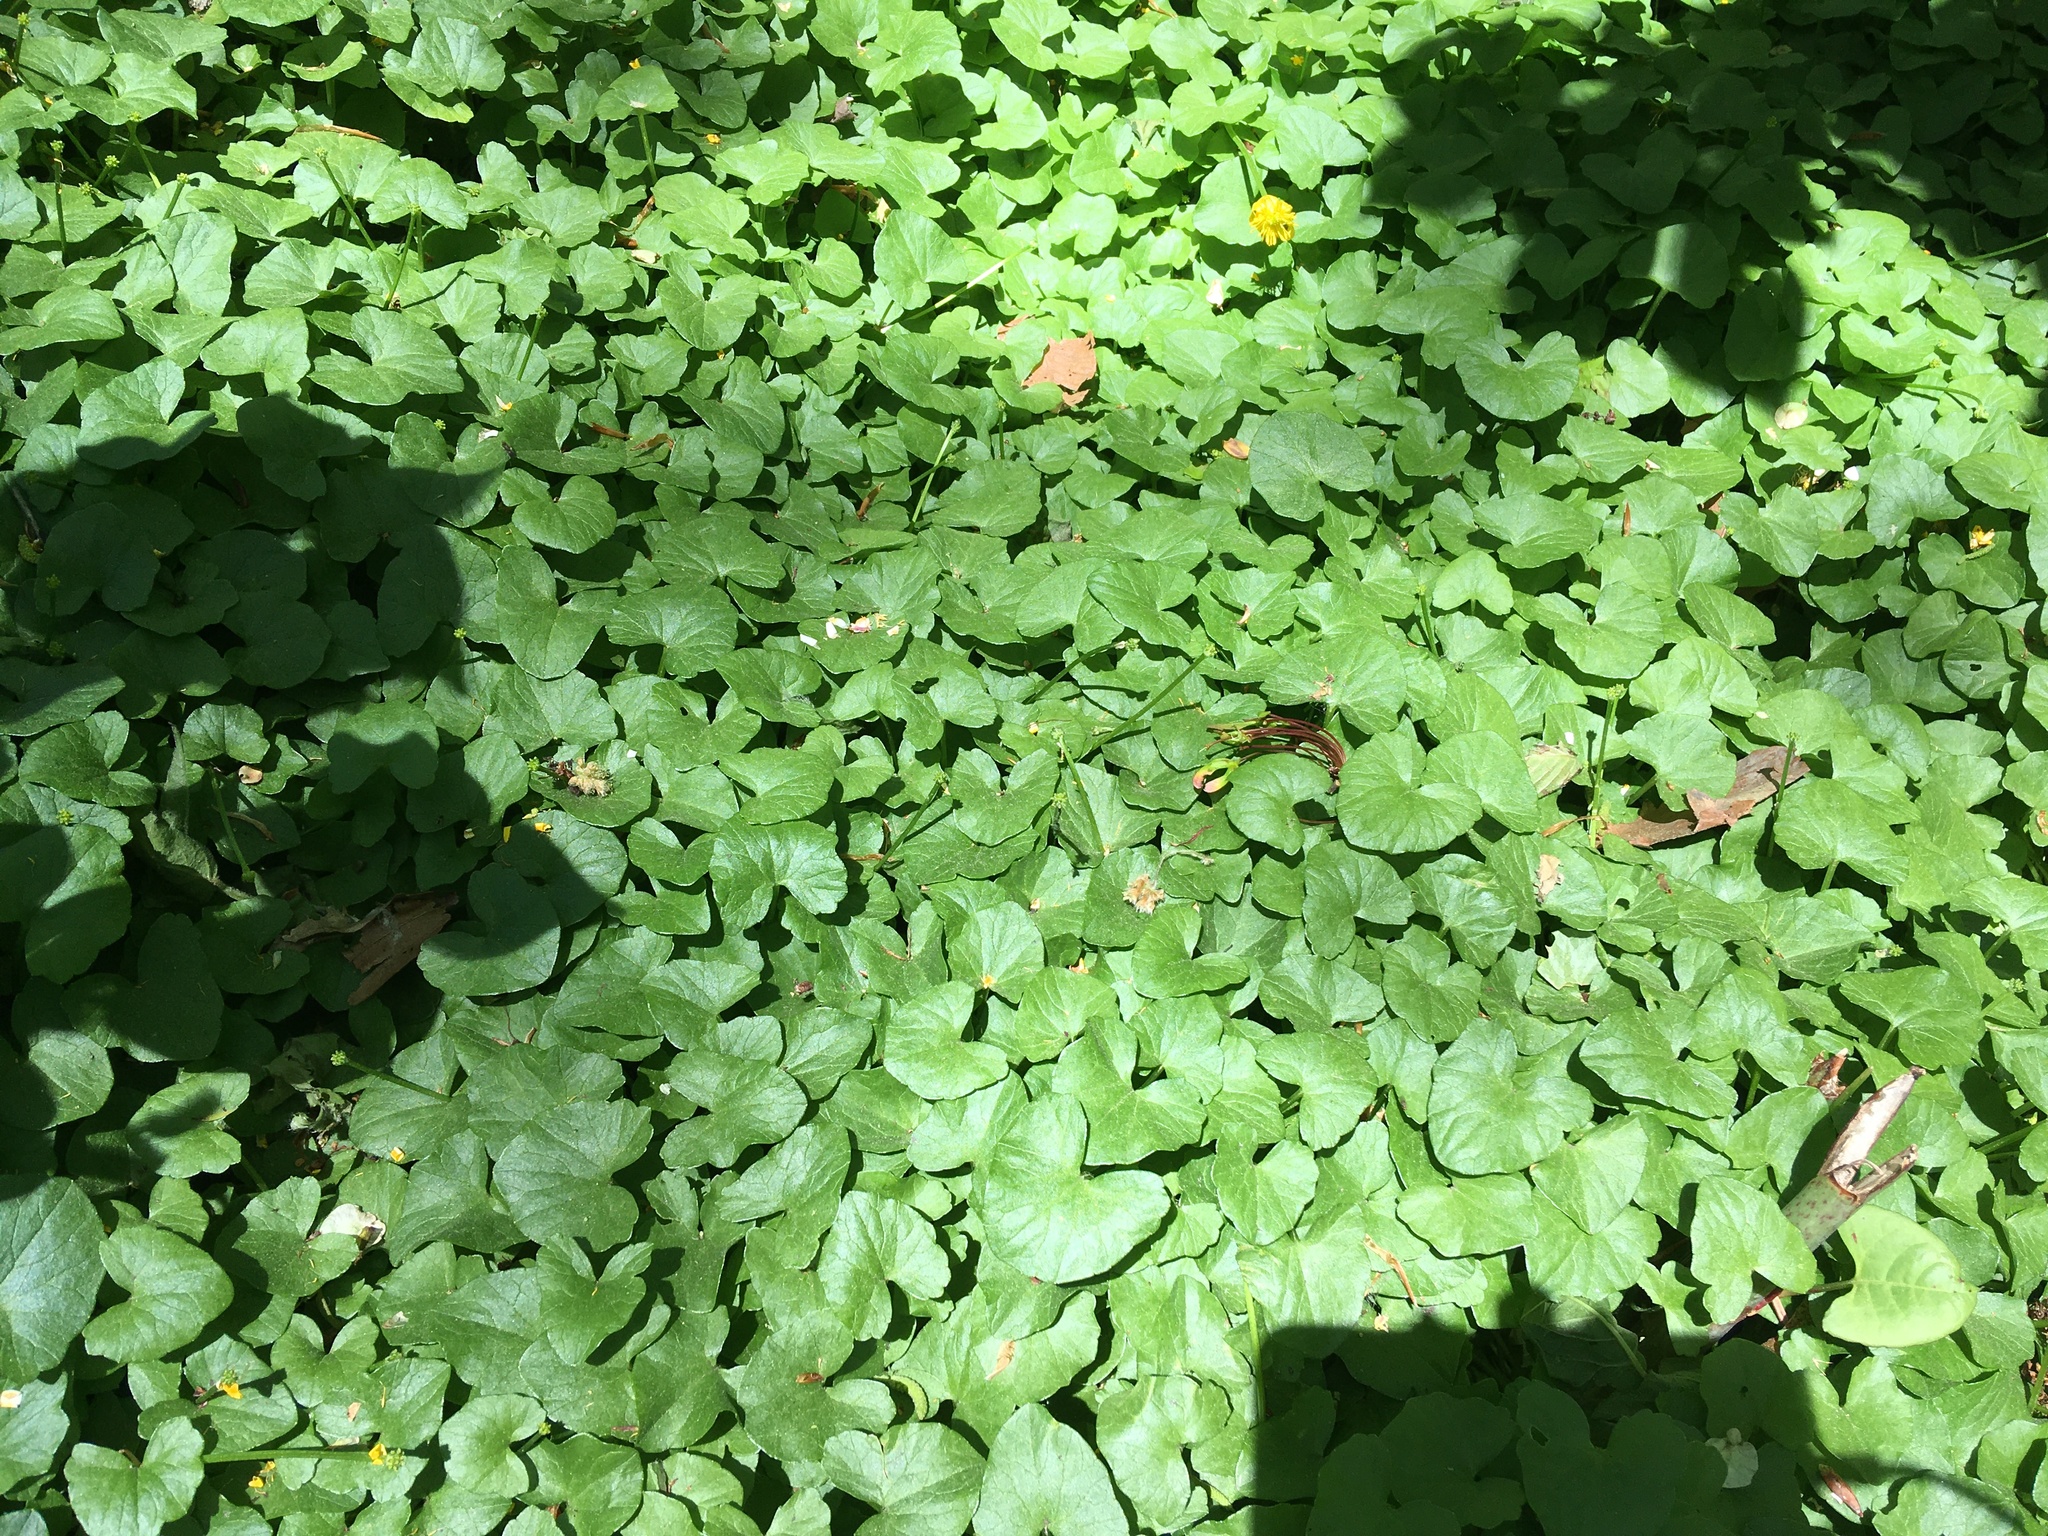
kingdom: Plantae
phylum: Tracheophyta
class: Magnoliopsida
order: Ranunculales
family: Ranunculaceae
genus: Ficaria
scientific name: Ficaria verna
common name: Lesser celandine
